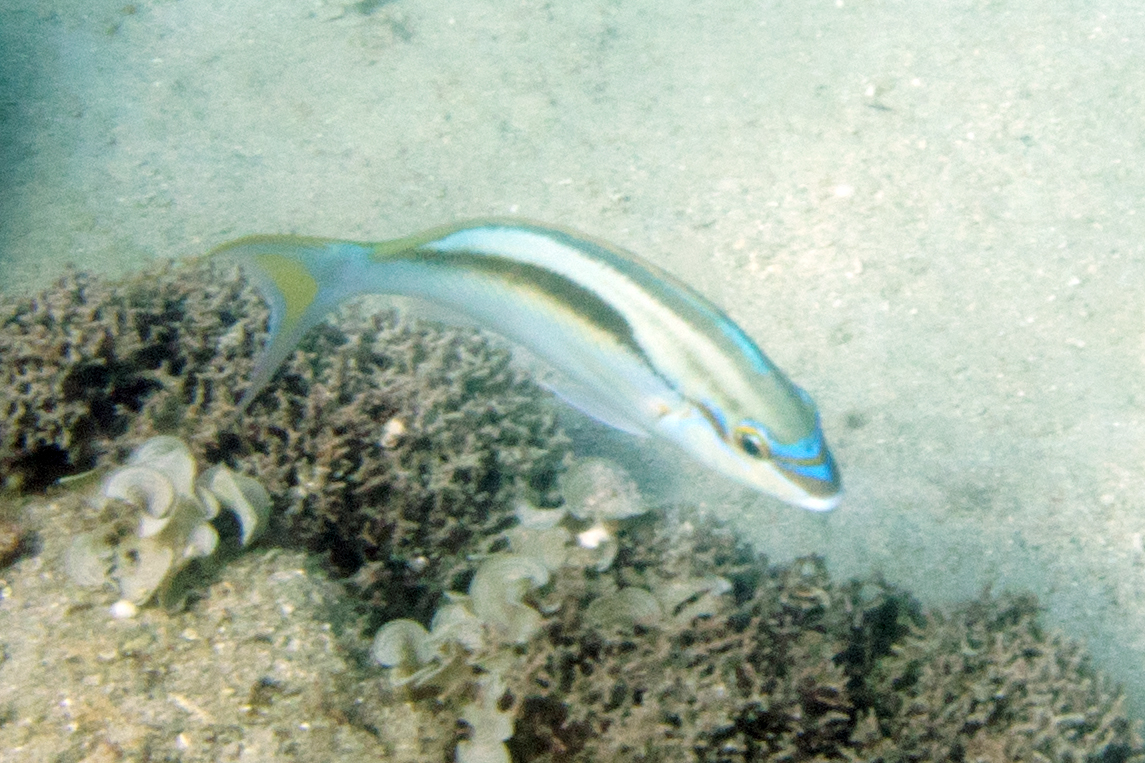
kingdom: Animalia
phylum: Chordata
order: Perciformes
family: Nemipteridae
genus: Scolopsis
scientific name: Scolopsis monogramma
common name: Monogrammed monocle bream
